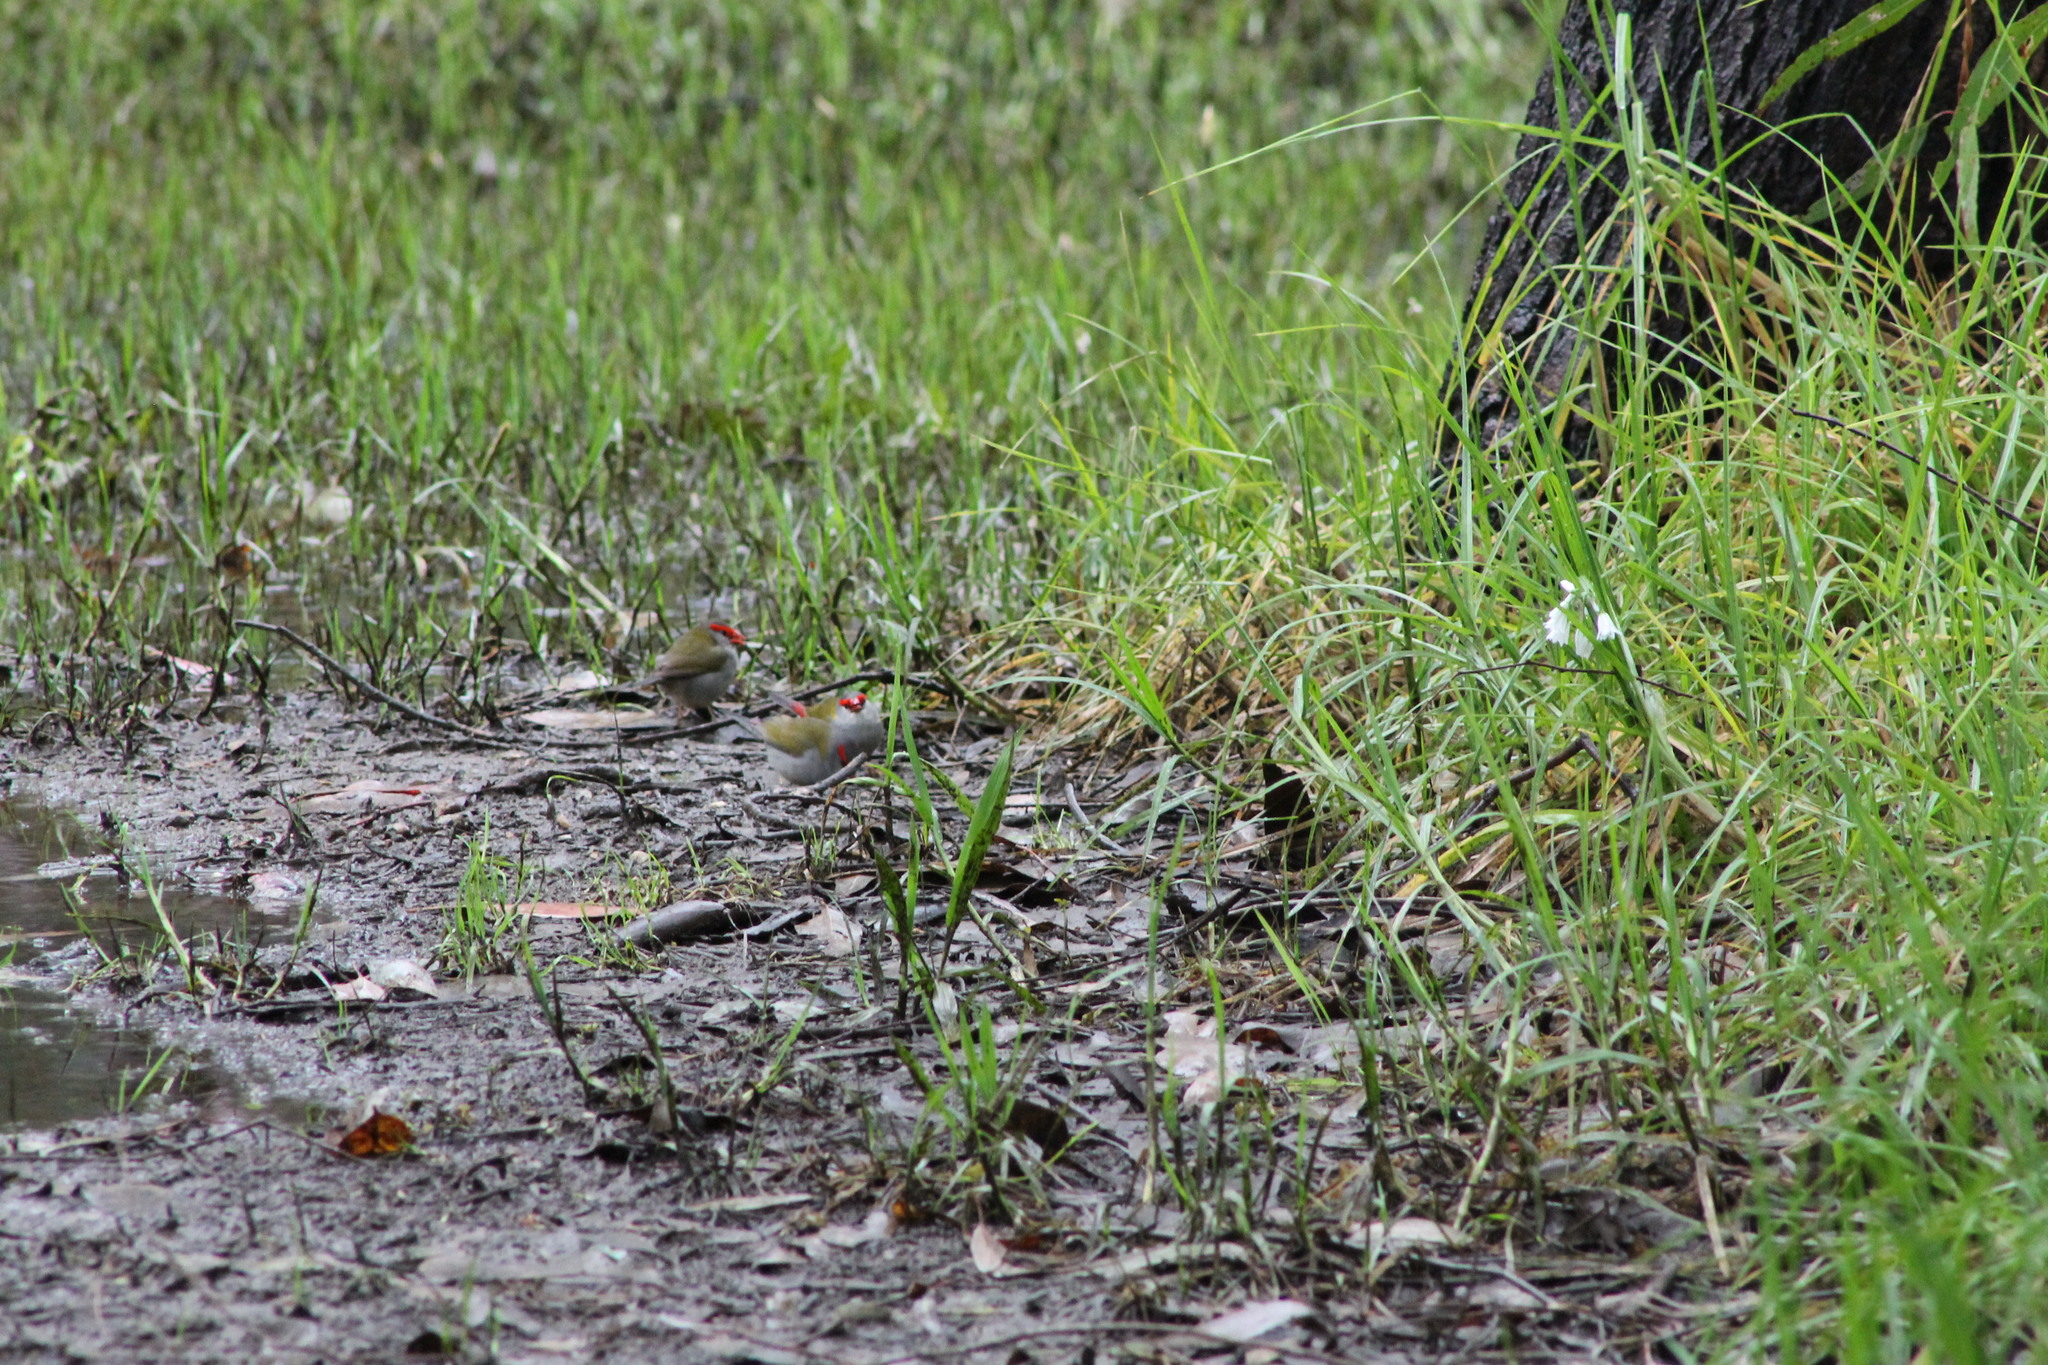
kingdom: Animalia
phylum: Chordata
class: Aves
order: Passeriformes
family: Estrildidae
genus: Neochmia
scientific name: Neochmia temporalis
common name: Red-browed finch
